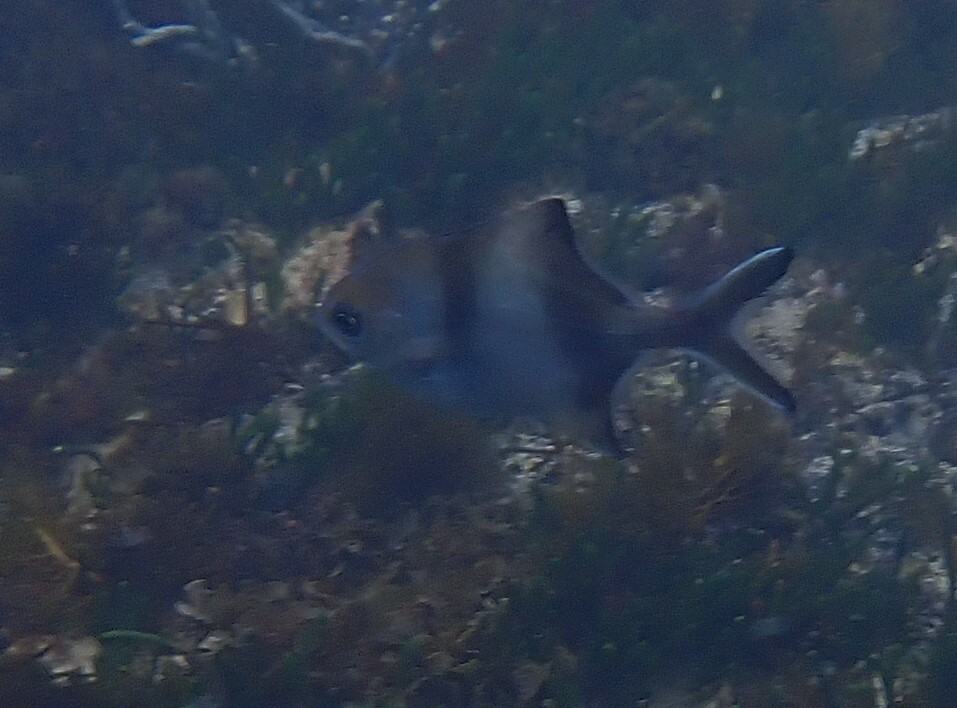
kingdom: Animalia
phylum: Chordata
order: Perciformes
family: Kyphosidae
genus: Scorpis
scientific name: Scorpis georgiana
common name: Banded sweep
